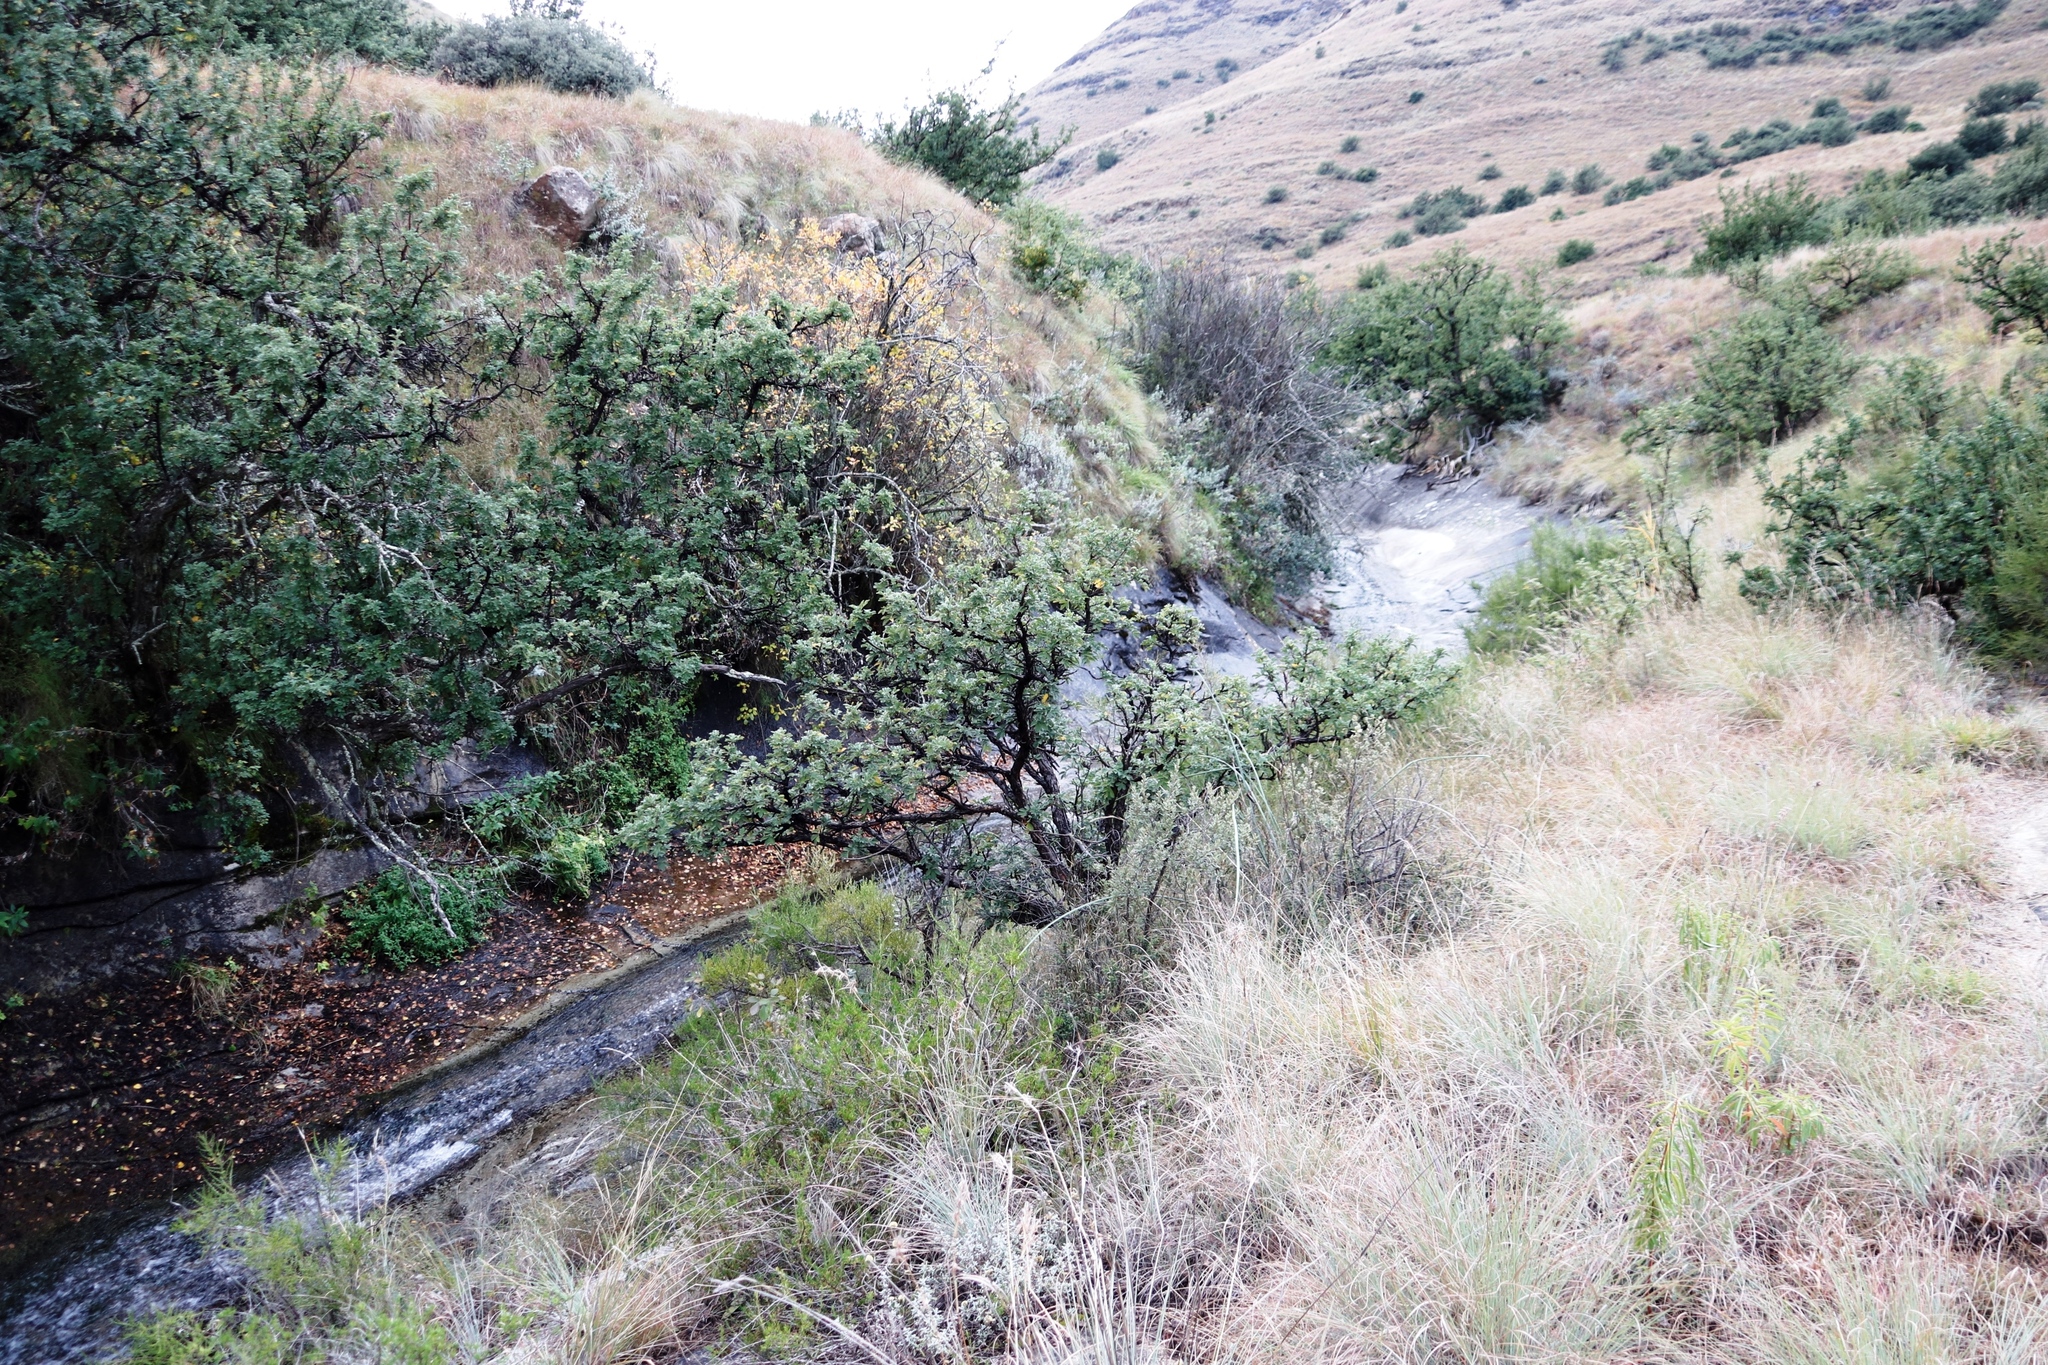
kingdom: Plantae
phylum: Tracheophyta
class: Magnoliopsida
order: Rosales
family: Rosaceae
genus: Leucosidea
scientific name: Leucosidea sericea
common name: Oldwood
